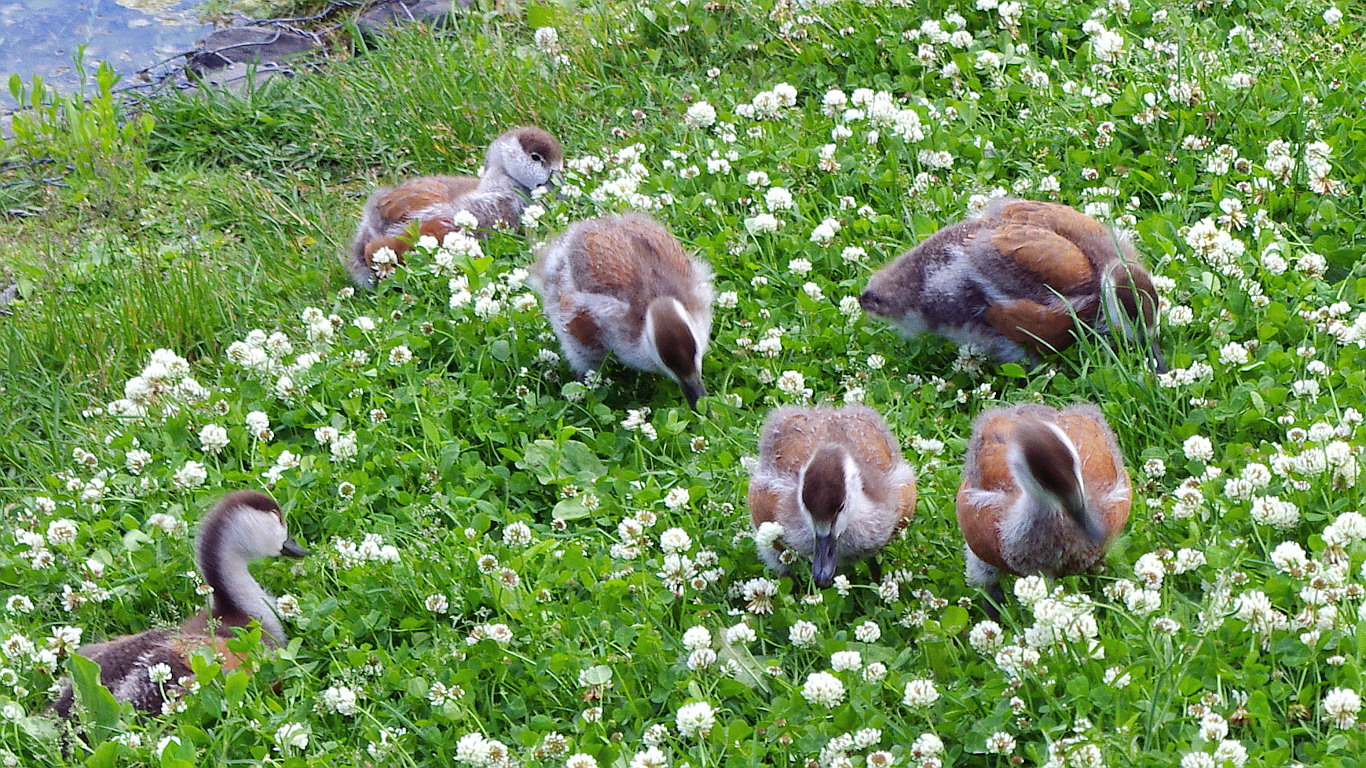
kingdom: Animalia
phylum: Chordata
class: Aves
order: Anseriformes
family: Anatidae
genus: Tadorna
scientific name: Tadorna ferruginea
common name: Ruddy shelduck
